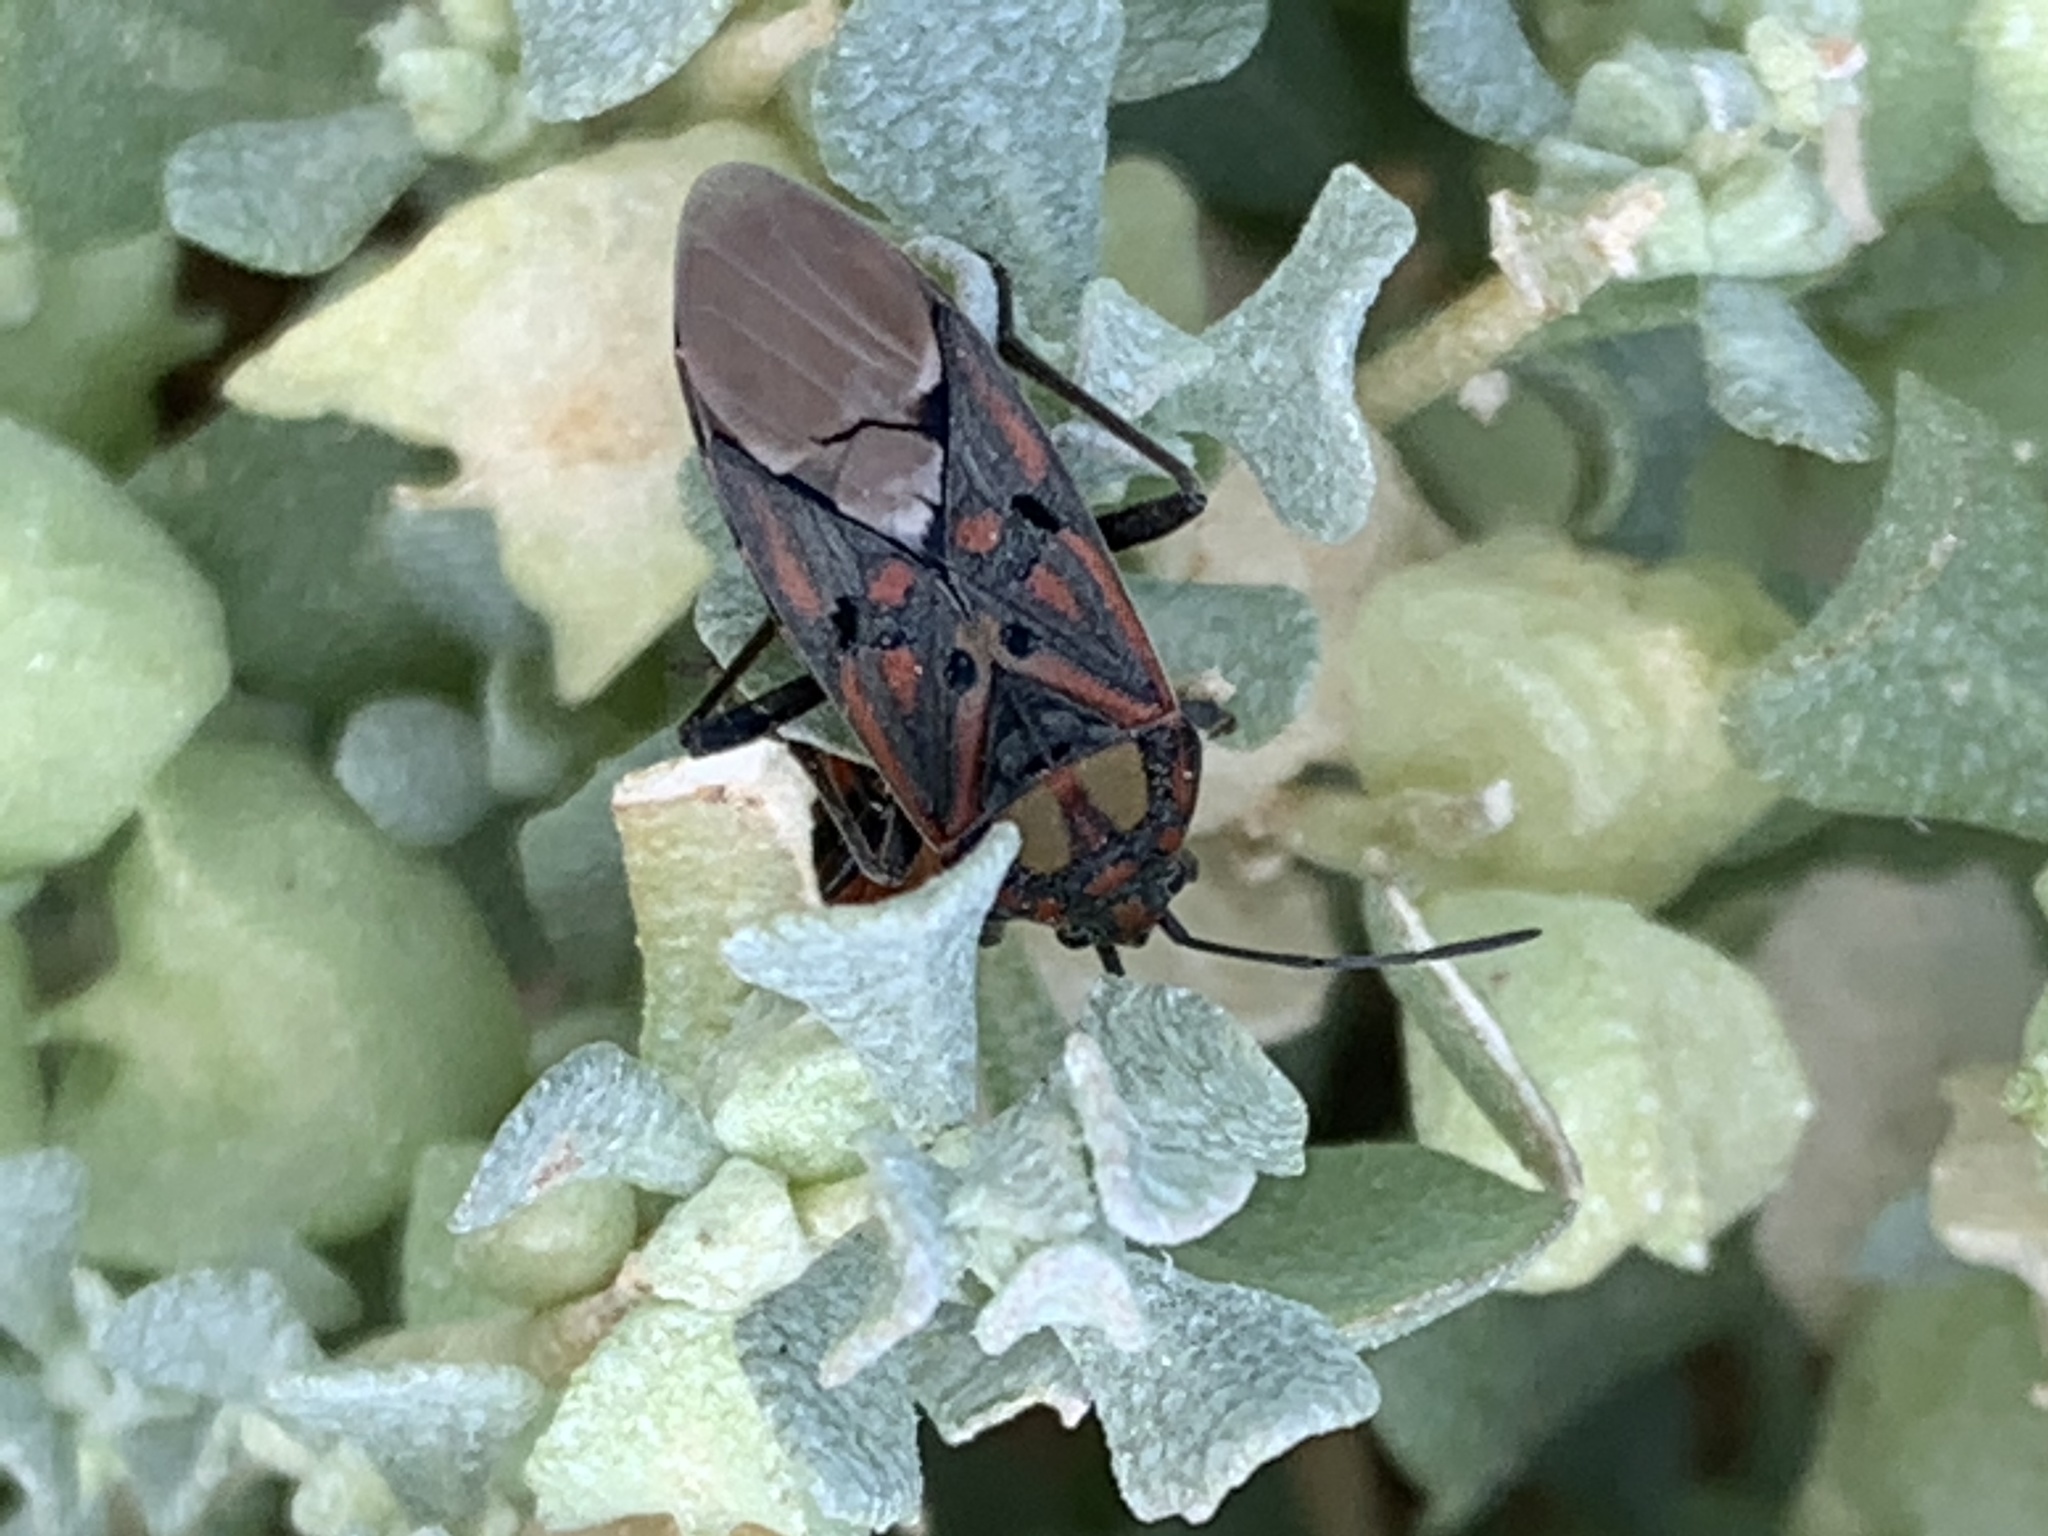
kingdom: Animalia
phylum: Arthropoda
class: Insecta
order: Hemiptera
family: Lygaeidae
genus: Spilostethus
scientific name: Spilostethus pandurus
